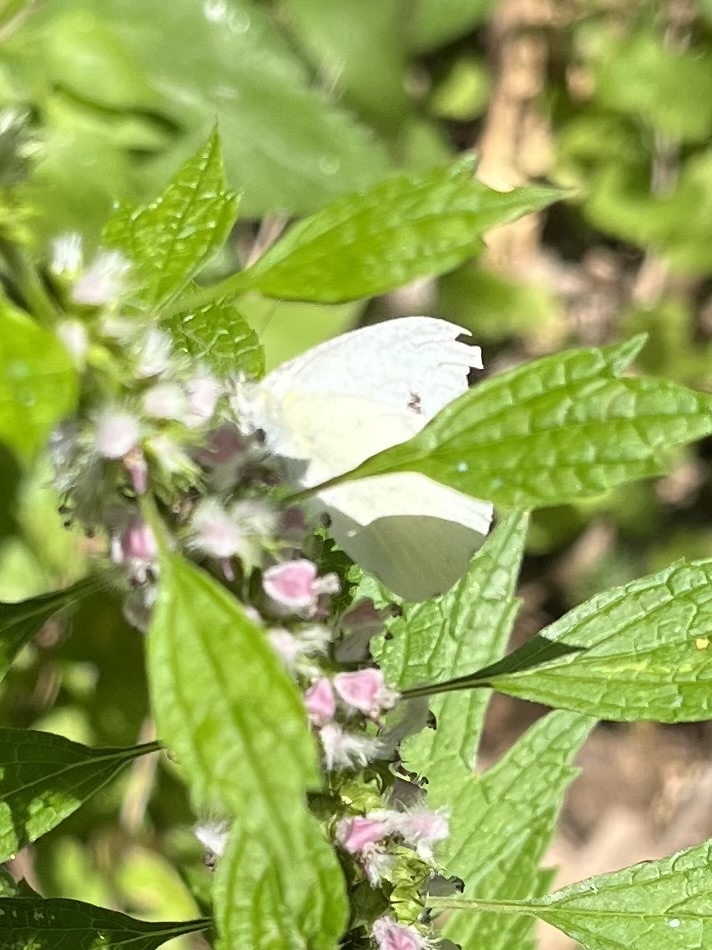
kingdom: Animalia
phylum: Arthropoda
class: Insecta
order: Lepidoptera
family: Pieridae
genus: Pieris
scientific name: Pieris rapae
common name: Small white
